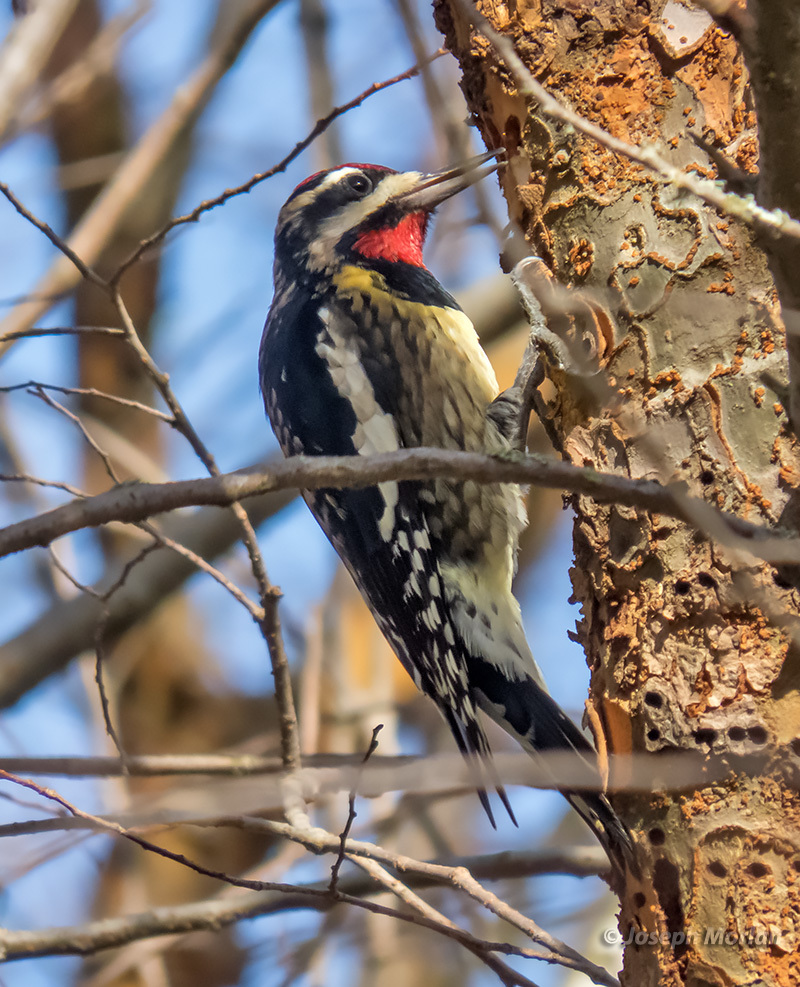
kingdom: Animalia
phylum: Chordata
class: Aves
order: Piciformes
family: Picidae
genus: Sphyrapicus
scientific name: Sphyrapicus varius
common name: Yellow-bellied sapsucker
